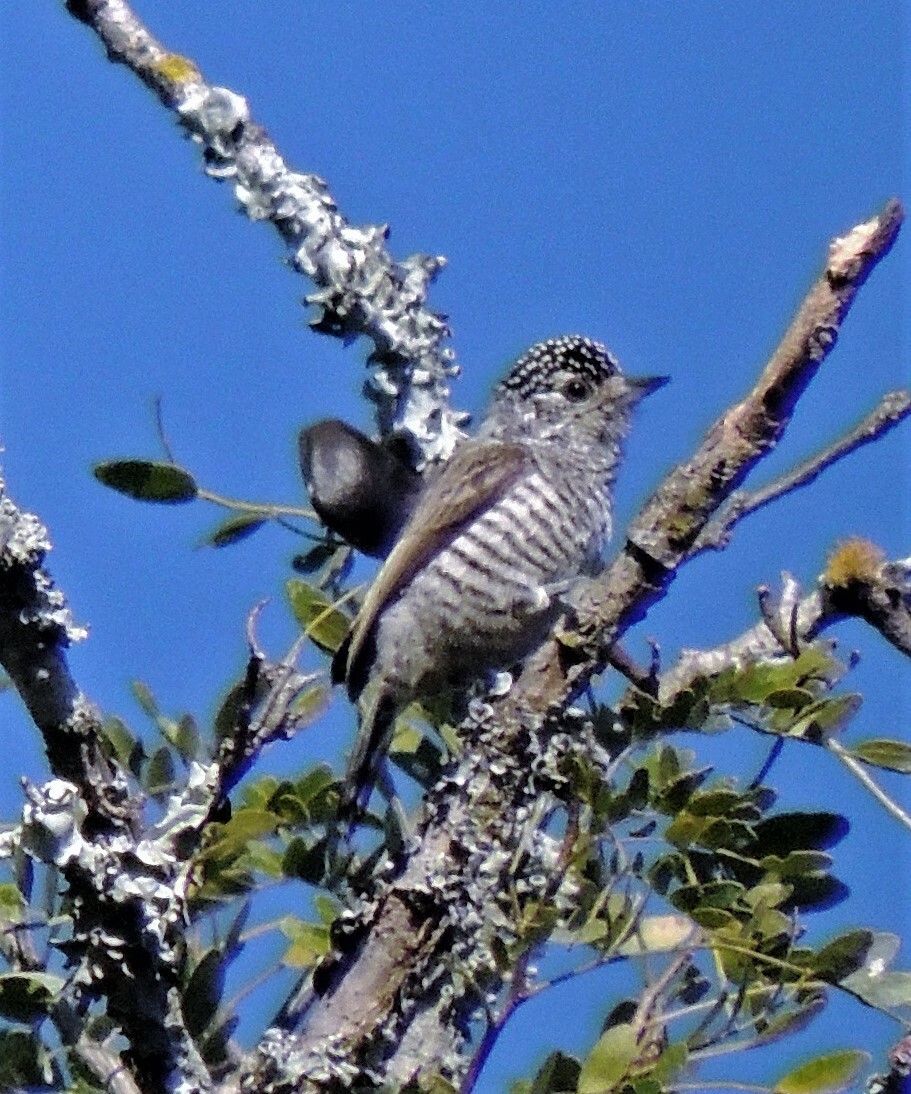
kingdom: Animalia
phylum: Chordata
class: Aves
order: Piciformes
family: Picidae
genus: Picumnus
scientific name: Picumnus cirratus
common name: White-barred piculet
